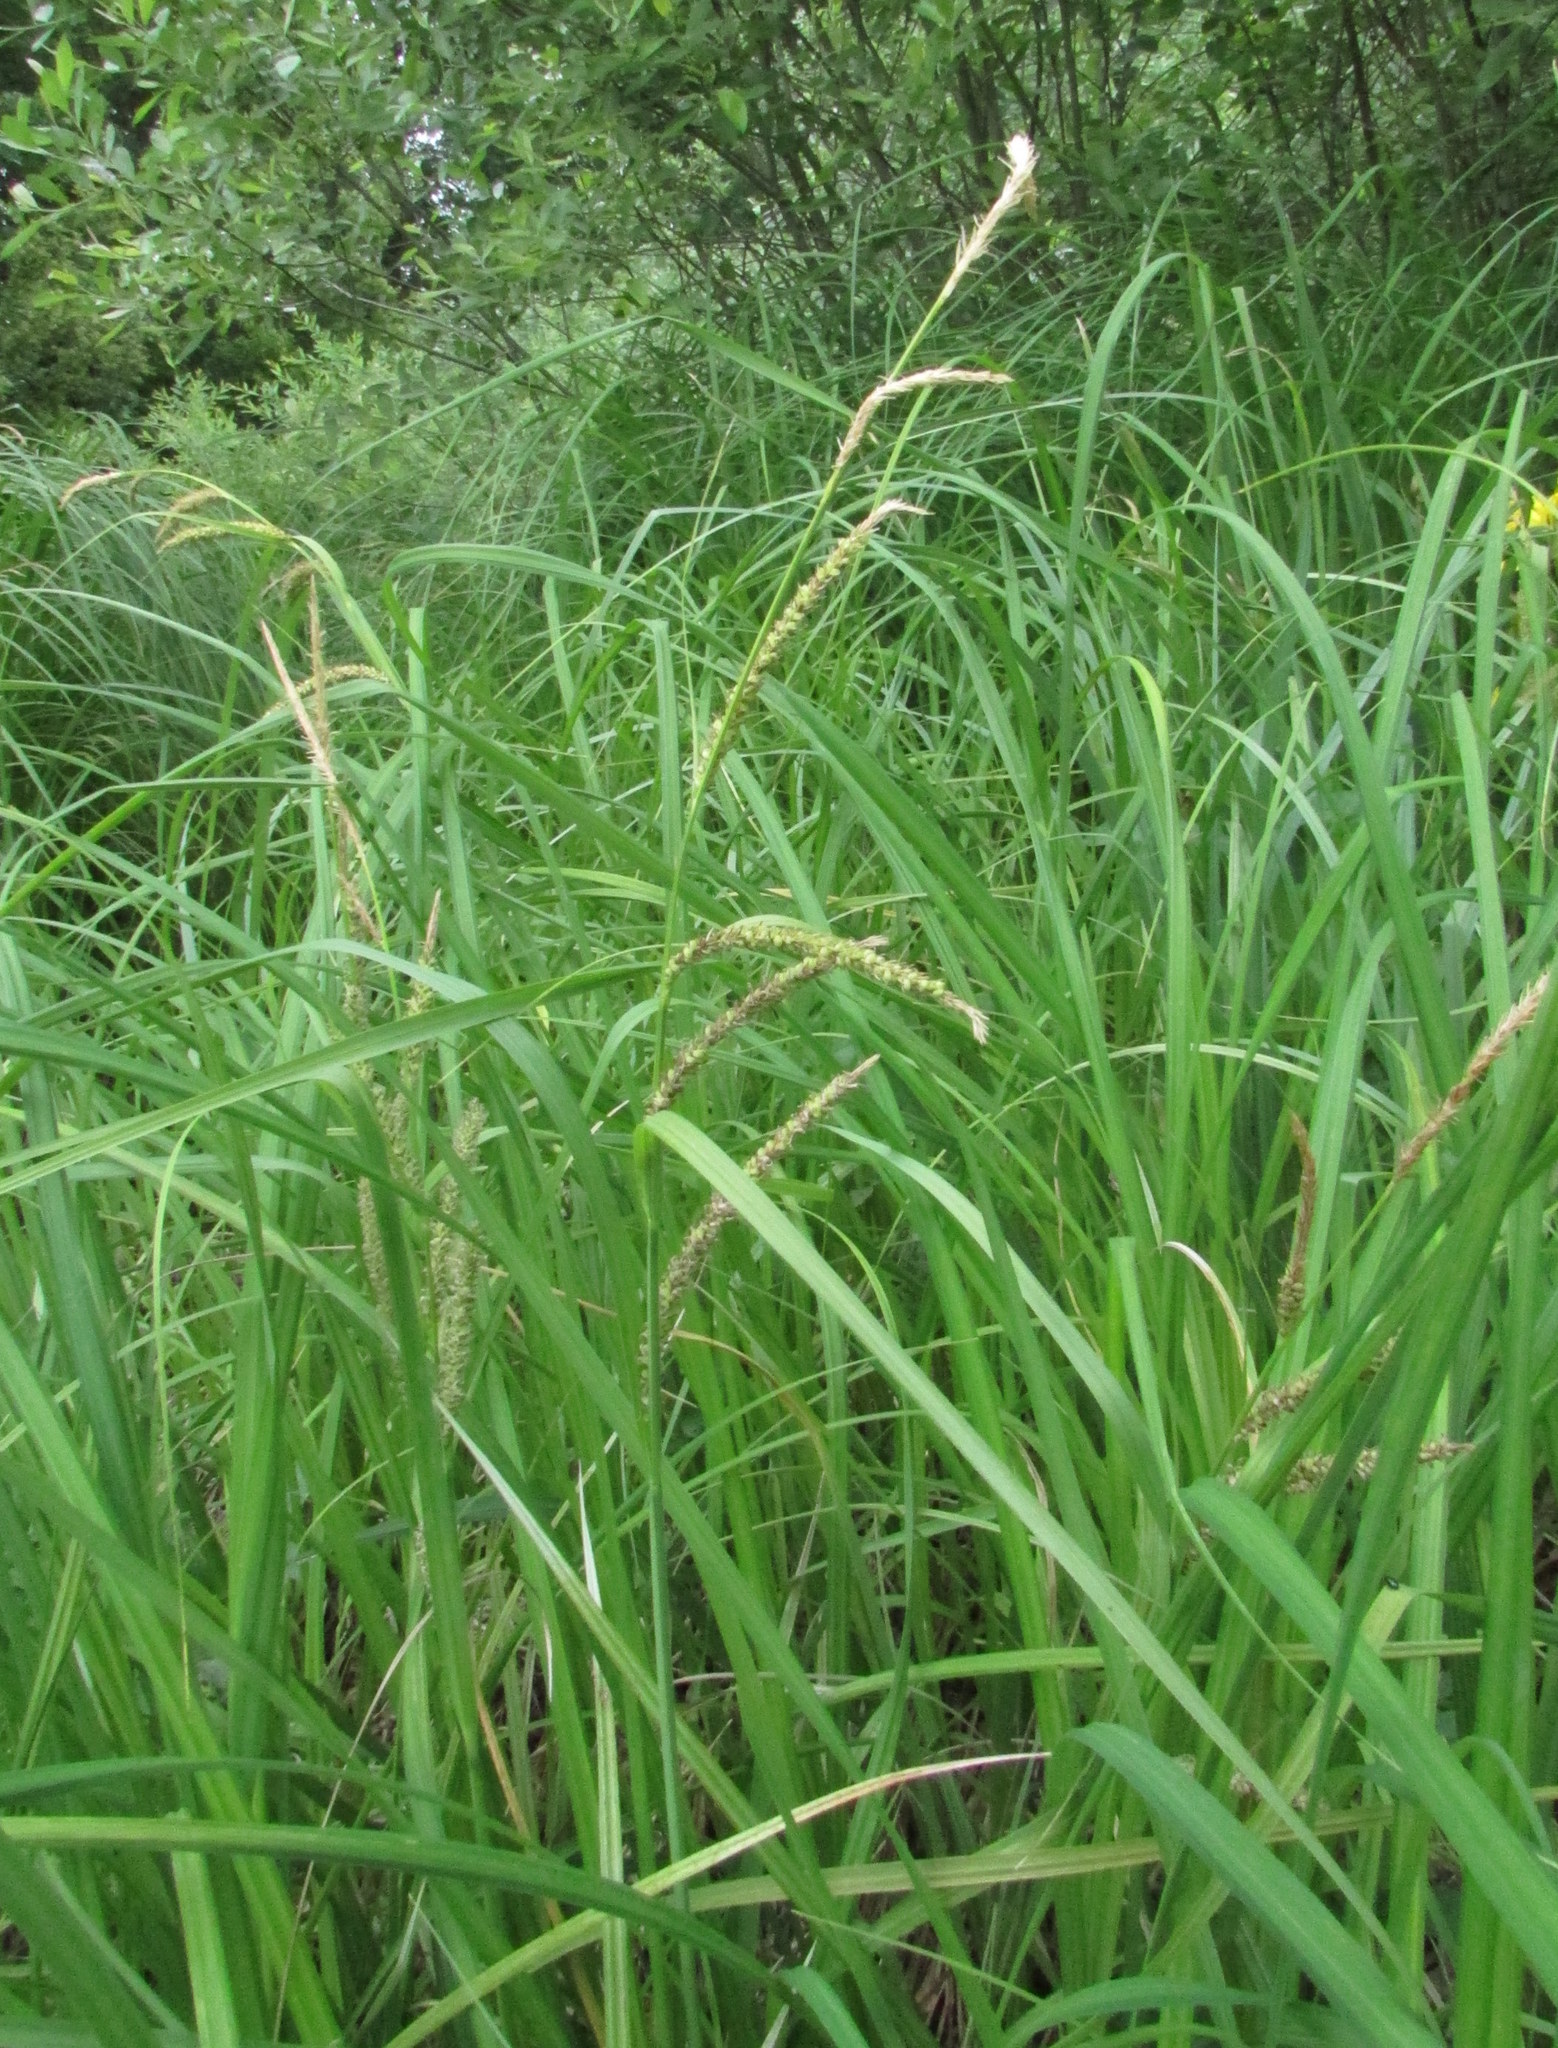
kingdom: Plantae
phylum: Tracheophyta
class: Liliopsida
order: Poales
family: Cyperaceae
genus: Carex
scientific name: Carex acuta
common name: Slender tufted-sedge
